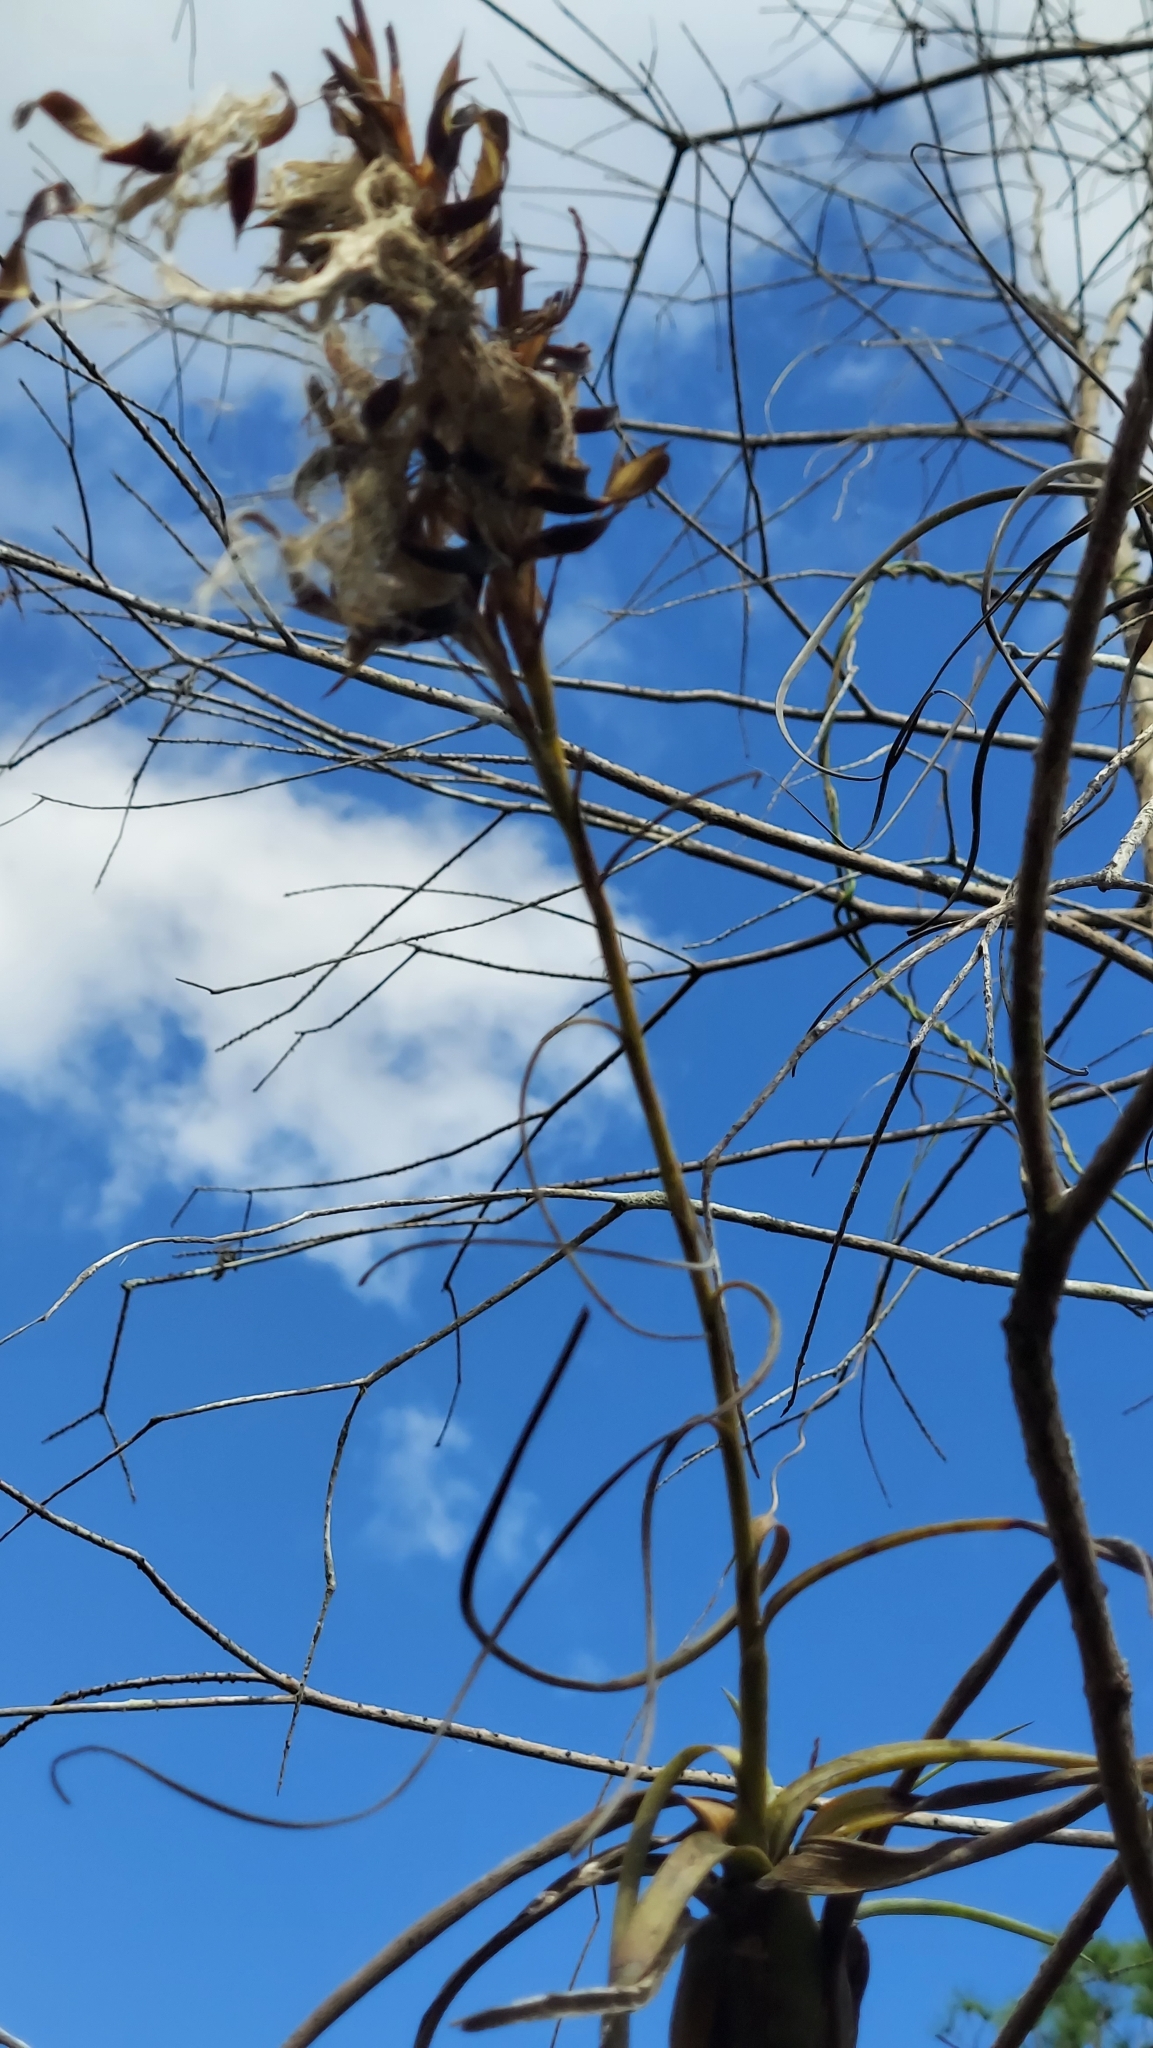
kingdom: Plantae
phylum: Tracheophyta
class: Liliopsida
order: Poales
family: Bromeliaceae
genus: Tillandsia
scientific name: Tillandsia balbisiana
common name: Northern needleleaf
